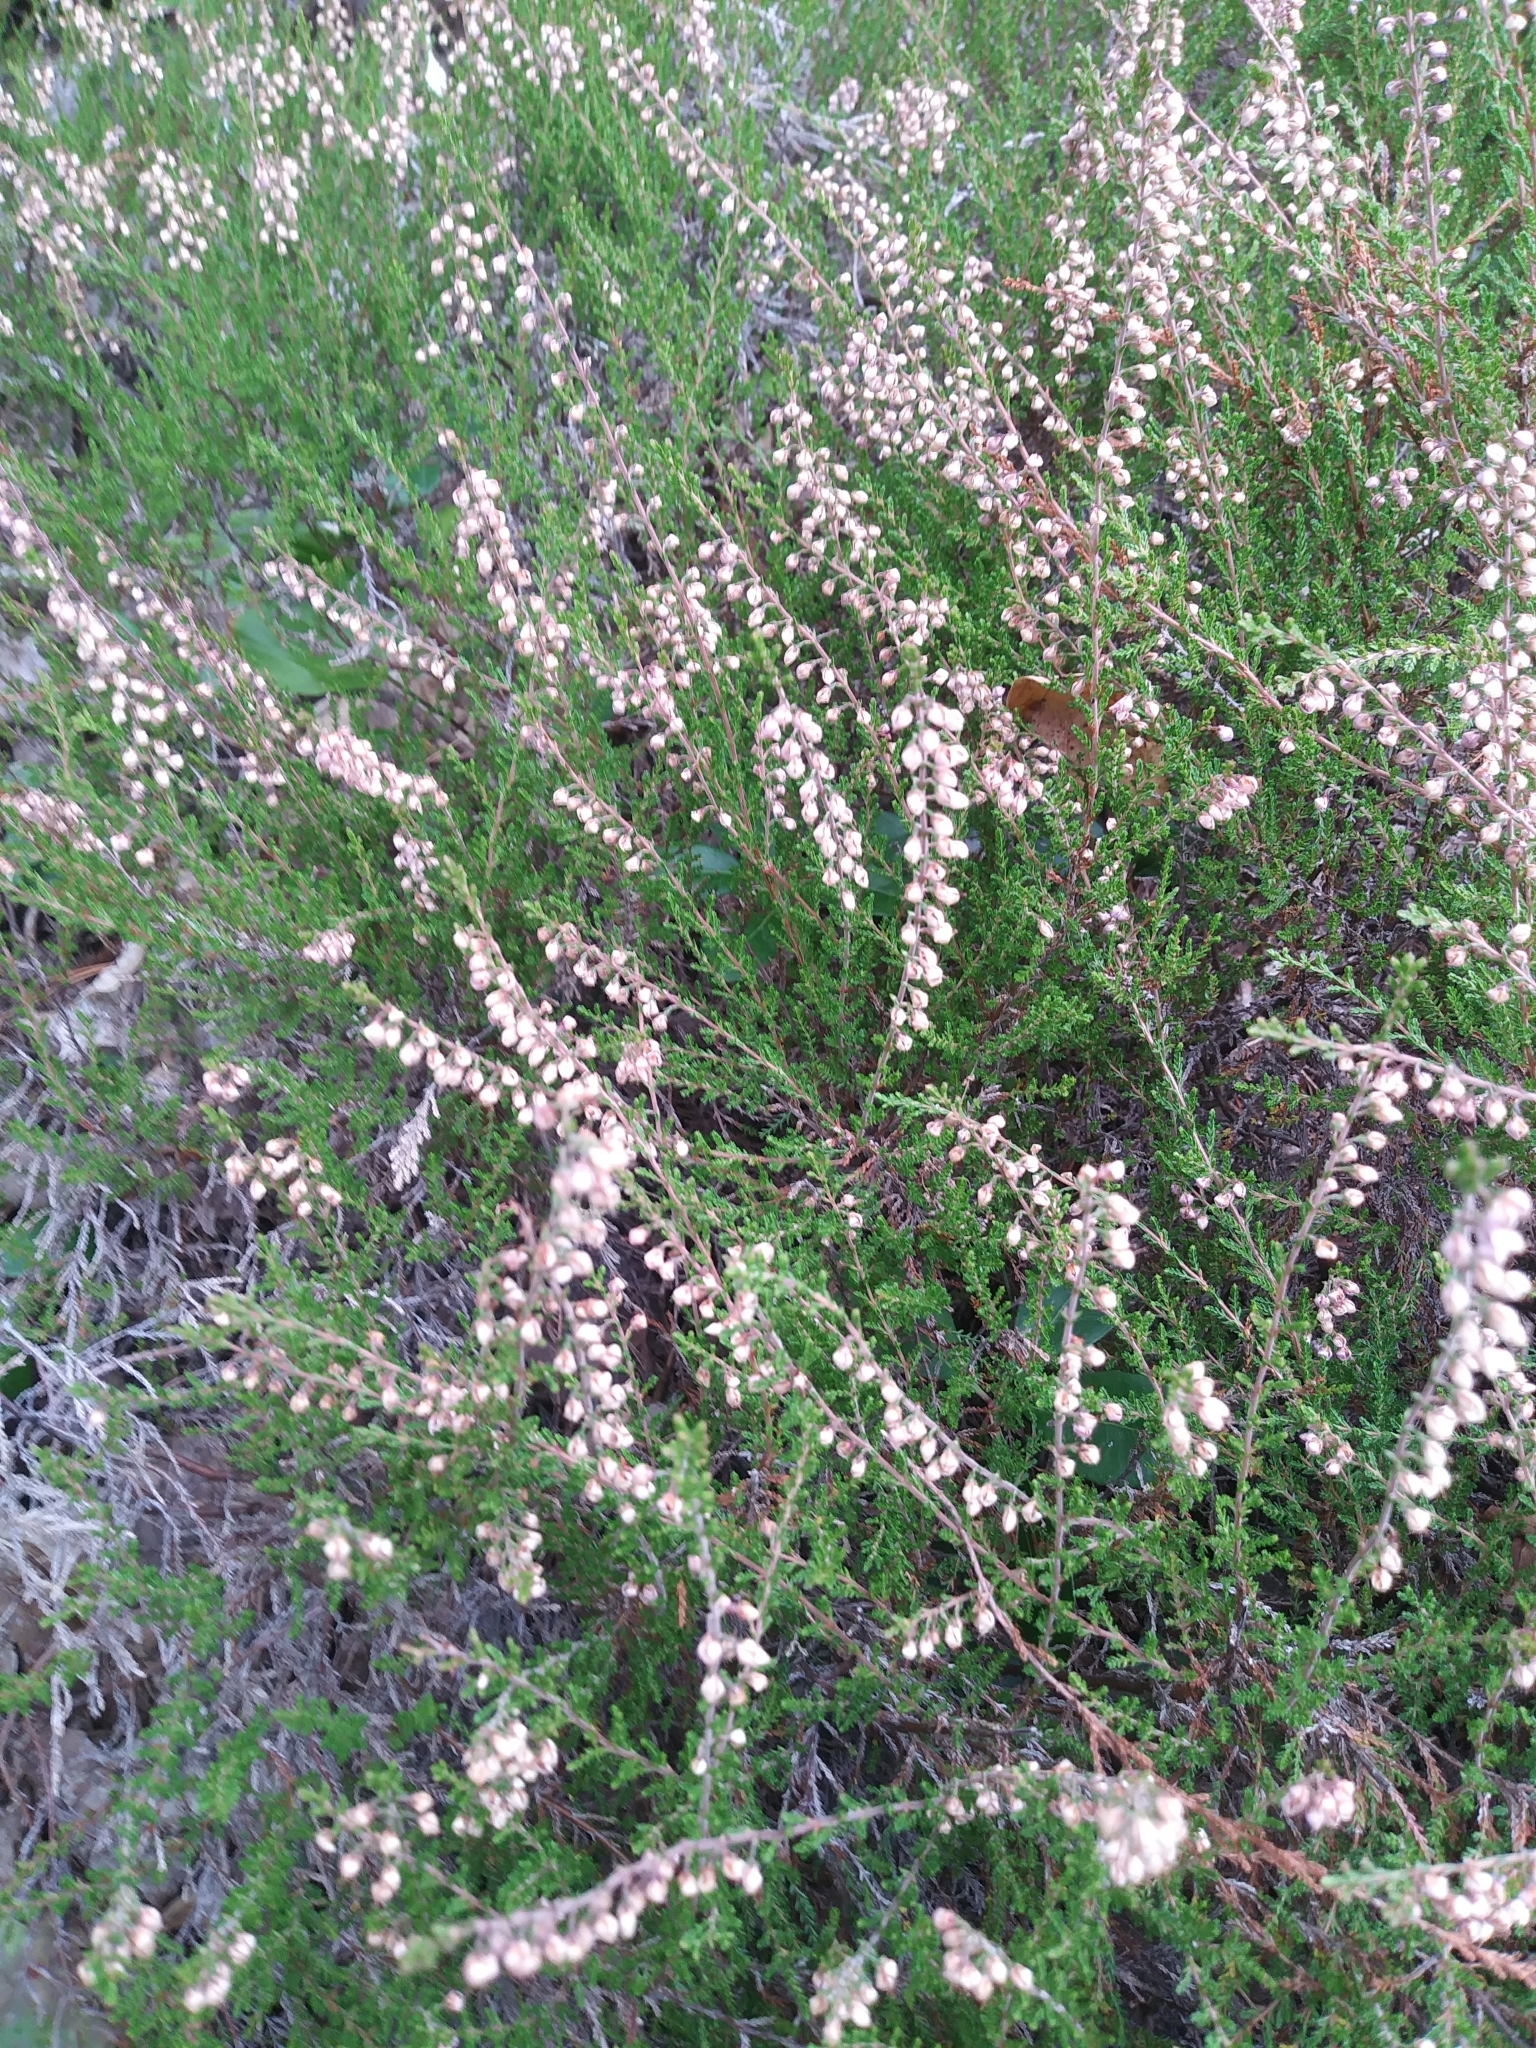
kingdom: Plantae
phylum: Tracheophyta
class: Magnoliopsida
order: Ericales
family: Ericaceae
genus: Calluna
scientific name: Calluna vulgaris
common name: Heather
